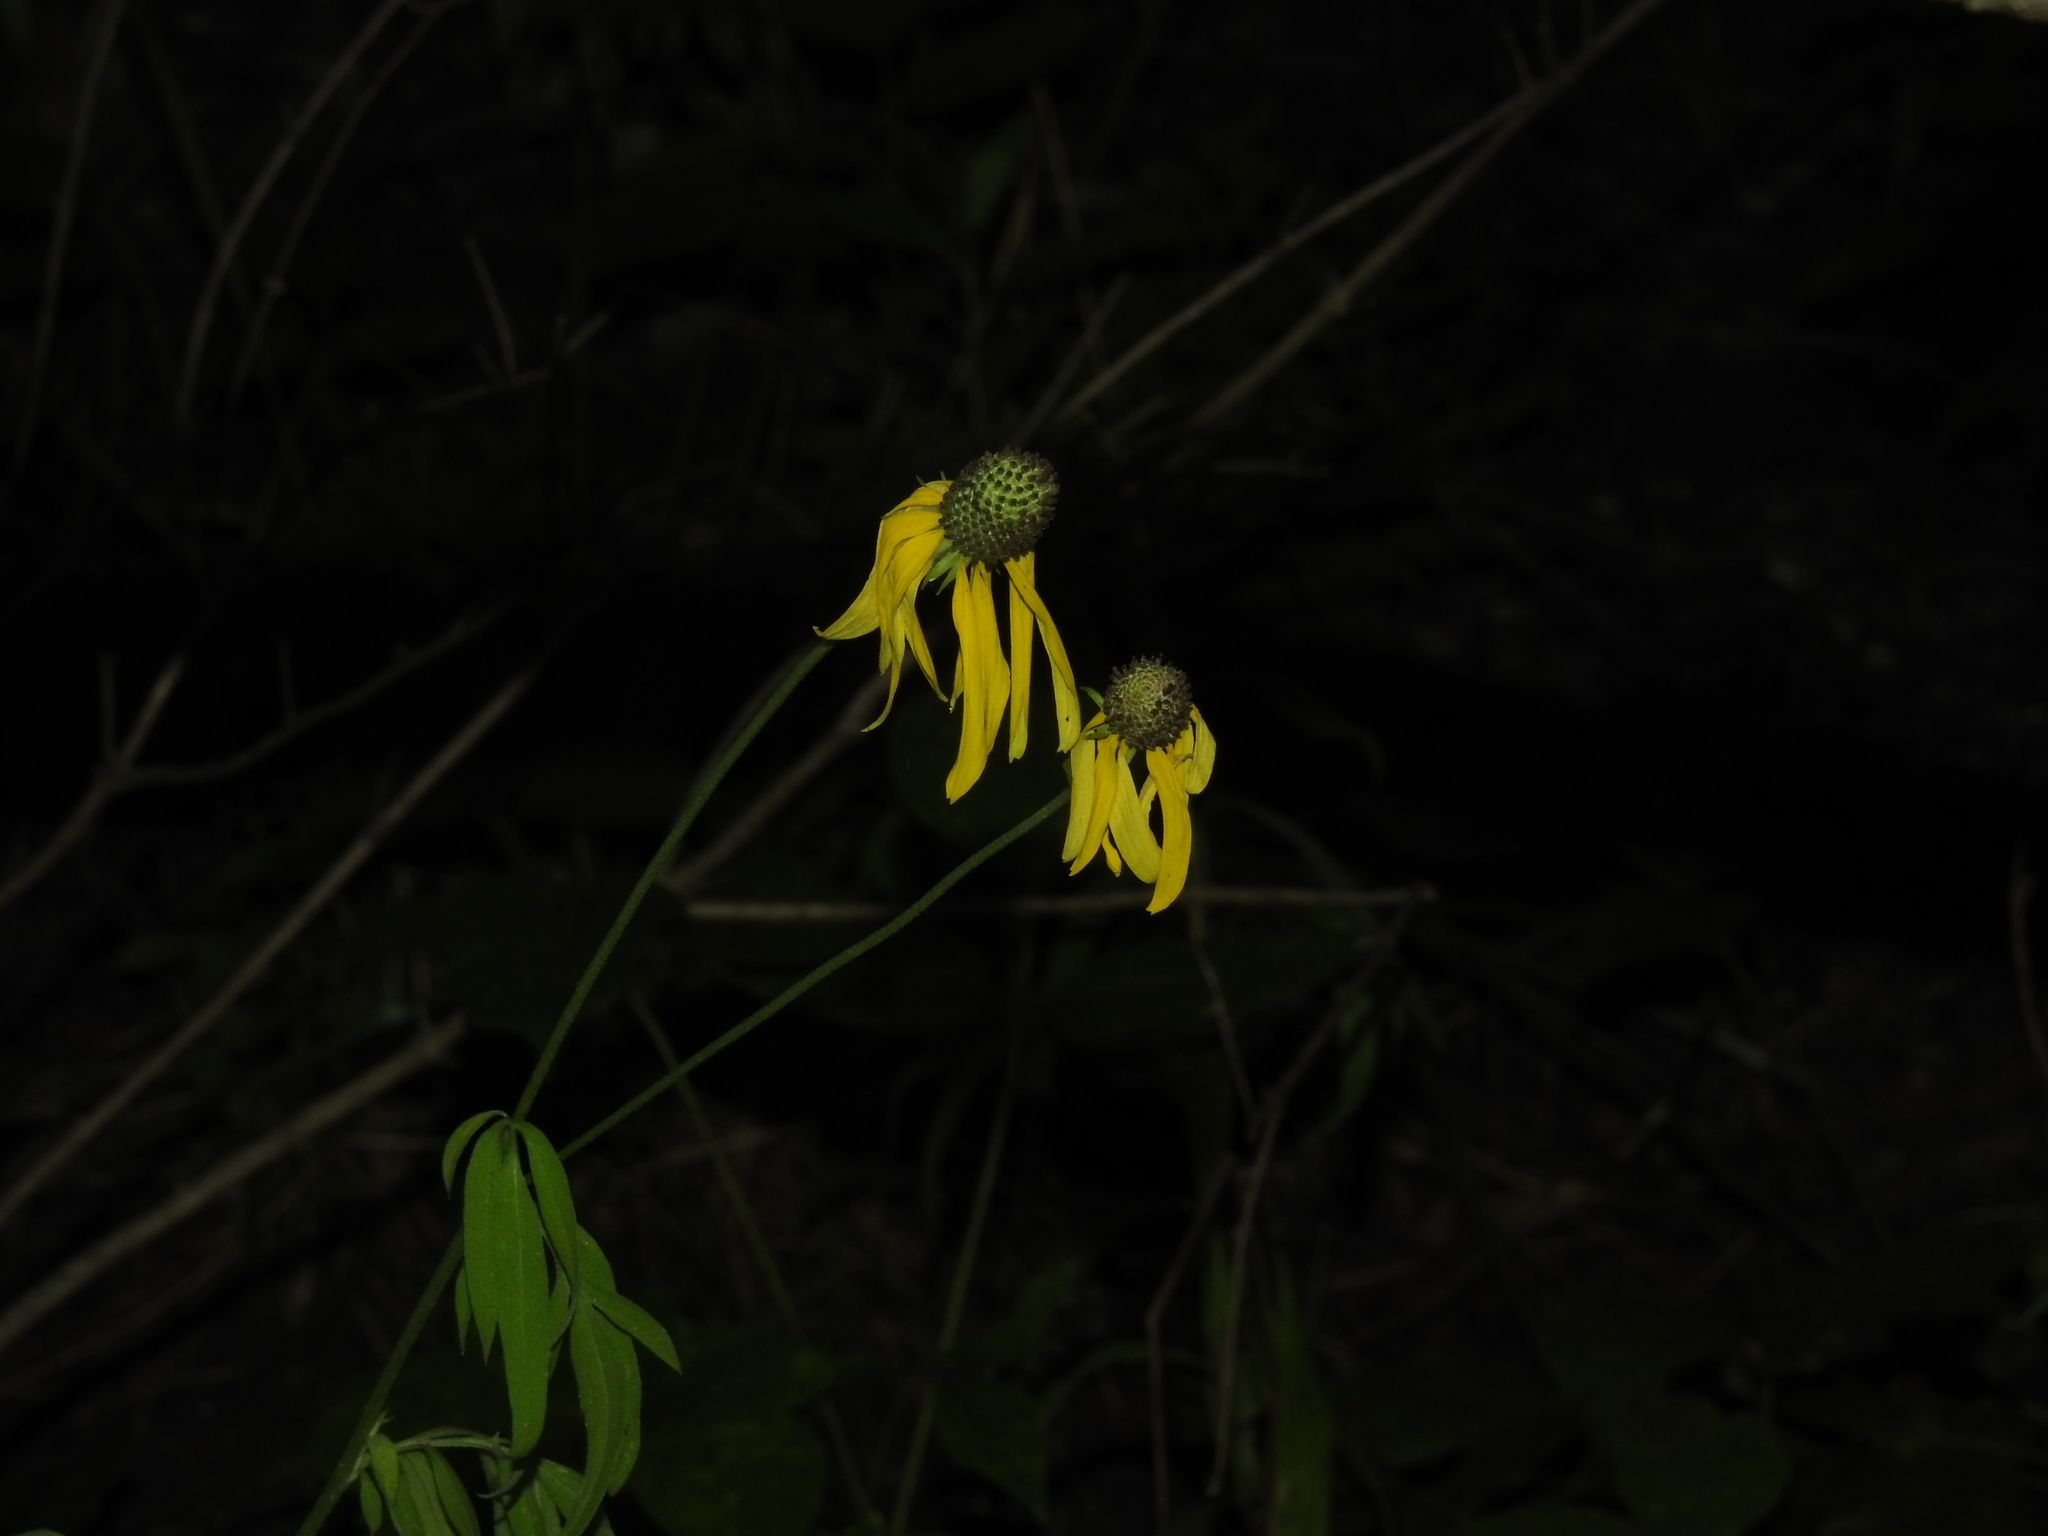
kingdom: Plantae
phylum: Tracheophyta
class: Magnoliopsida
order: Asterales
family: Asteraceae
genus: Ratibida
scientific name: Ratibida pinnata
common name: Drooping prairie-coneflower
